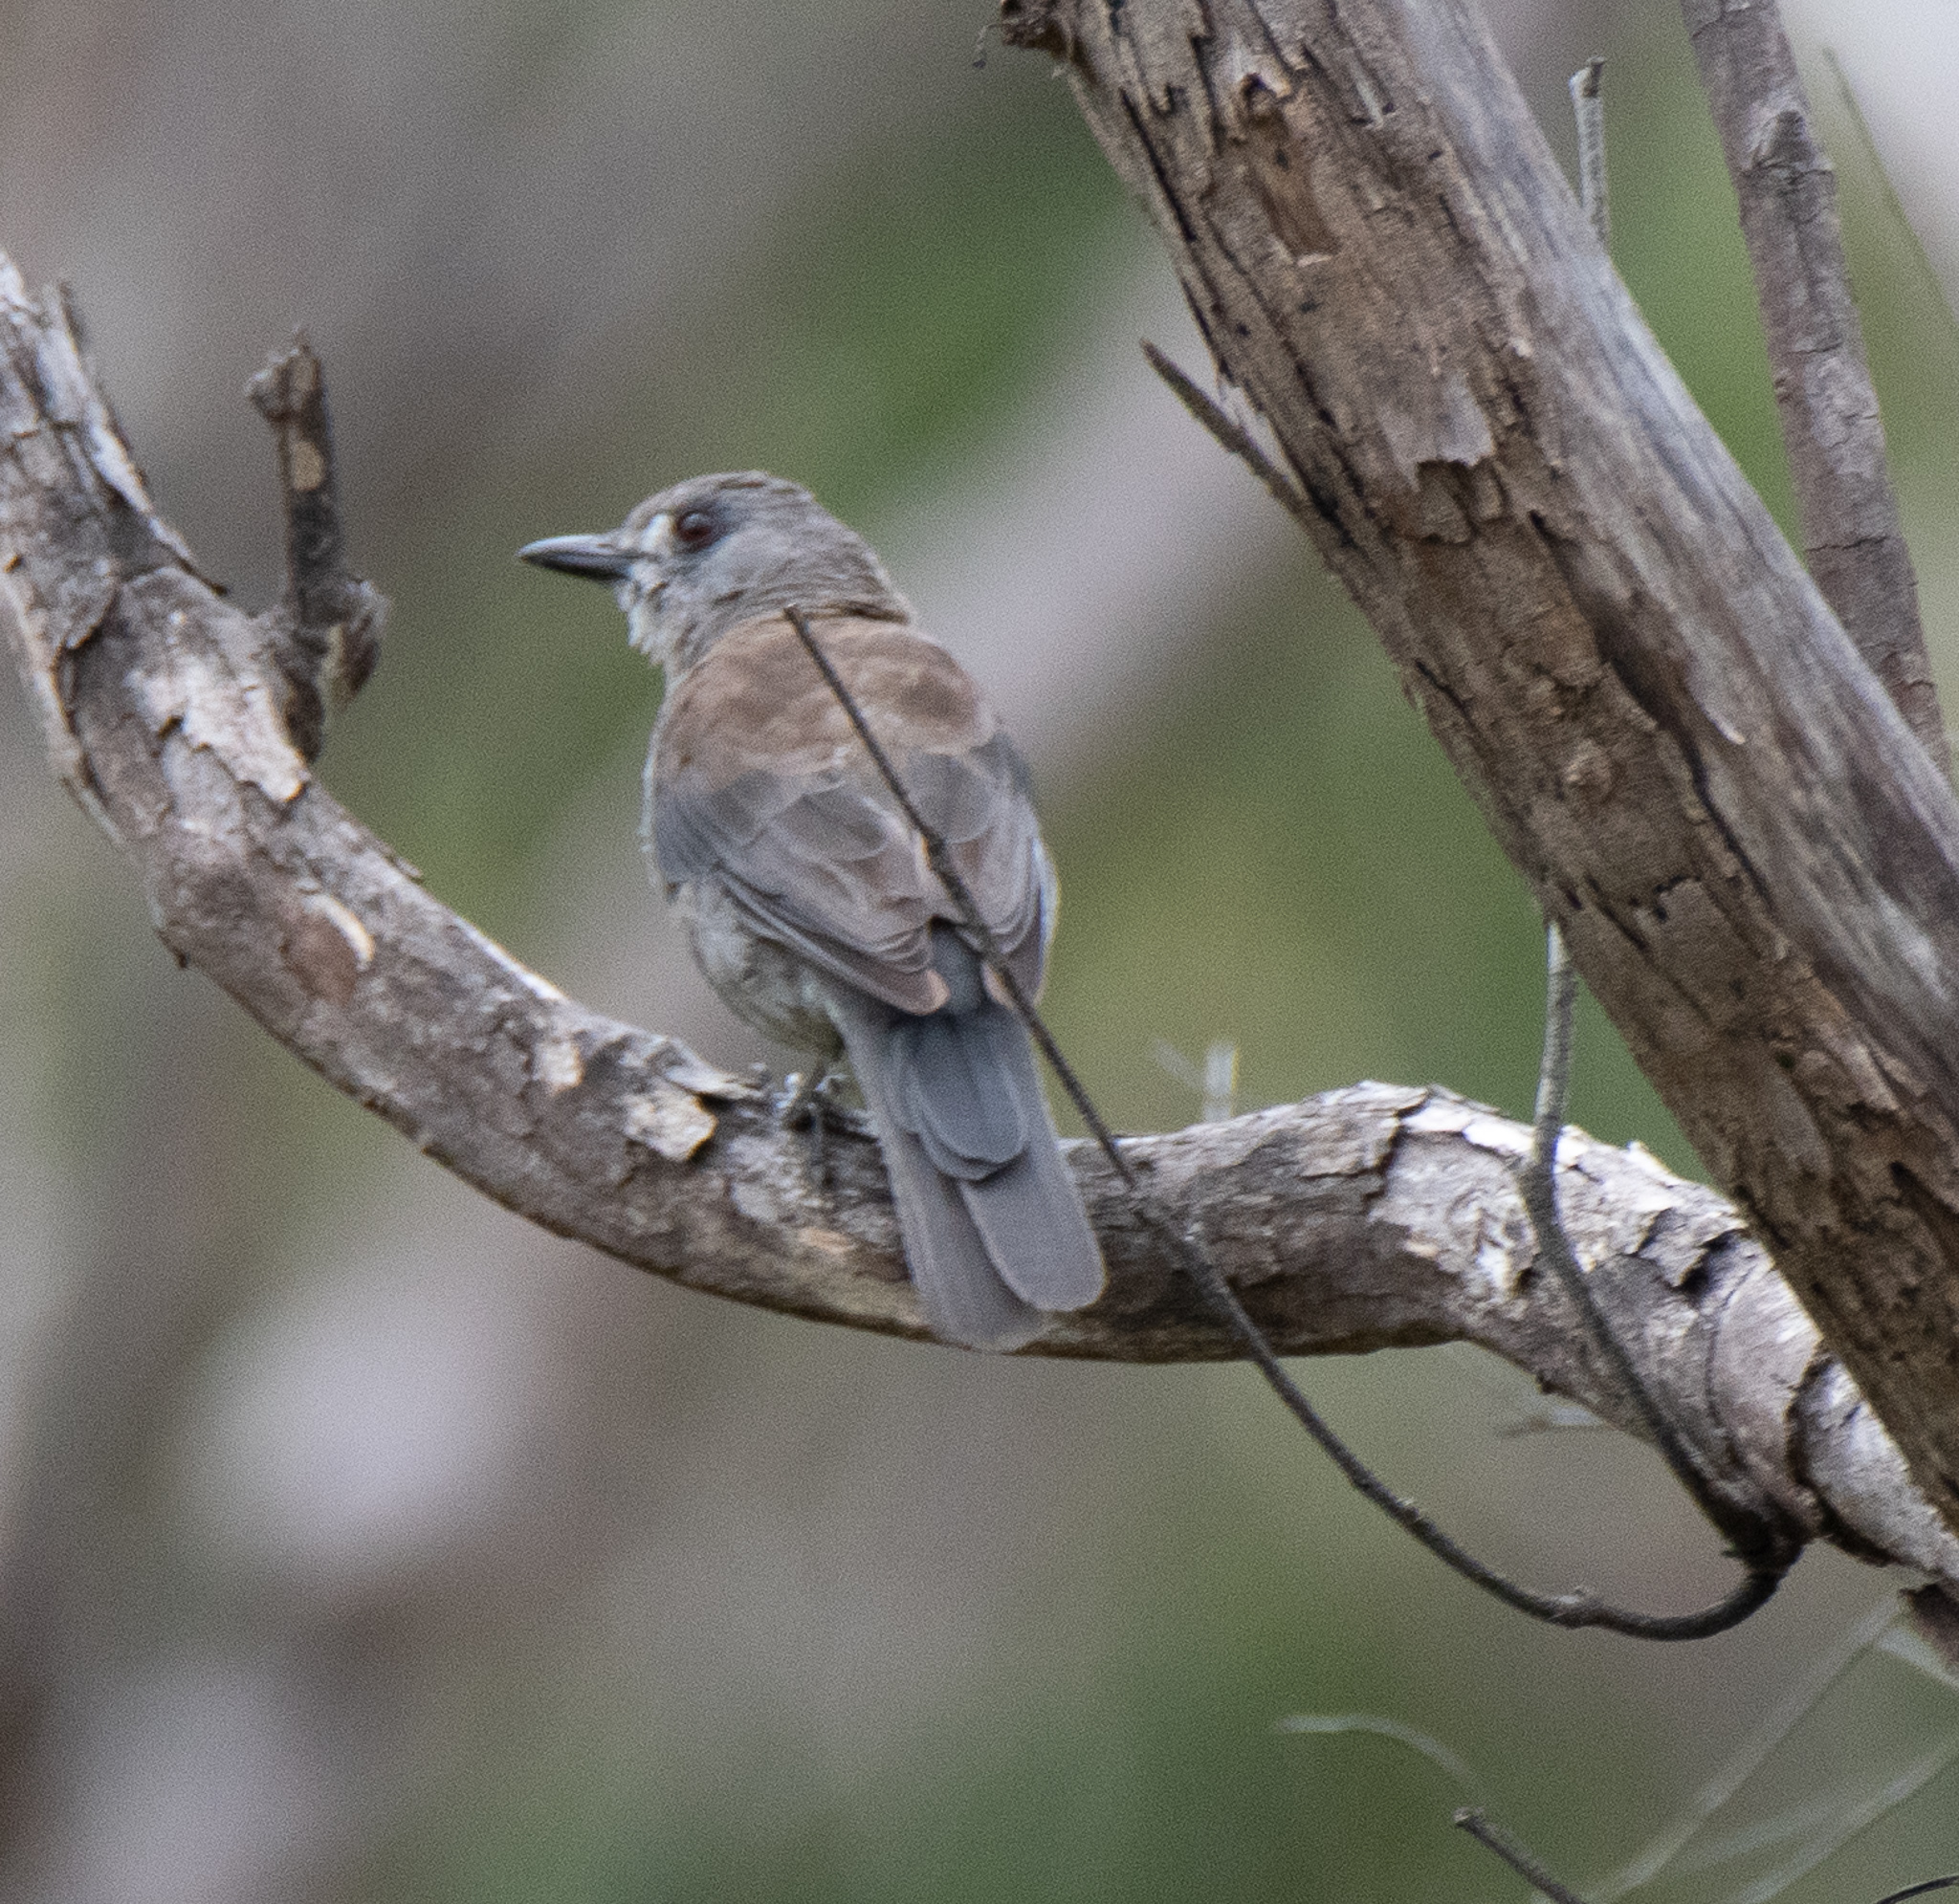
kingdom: Animalia
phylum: Chordata
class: Aves
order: Passeriformes
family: Pachycephalidae
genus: Colluricincla
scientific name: Colluricincla harmonica
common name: Grey shrikethrush
